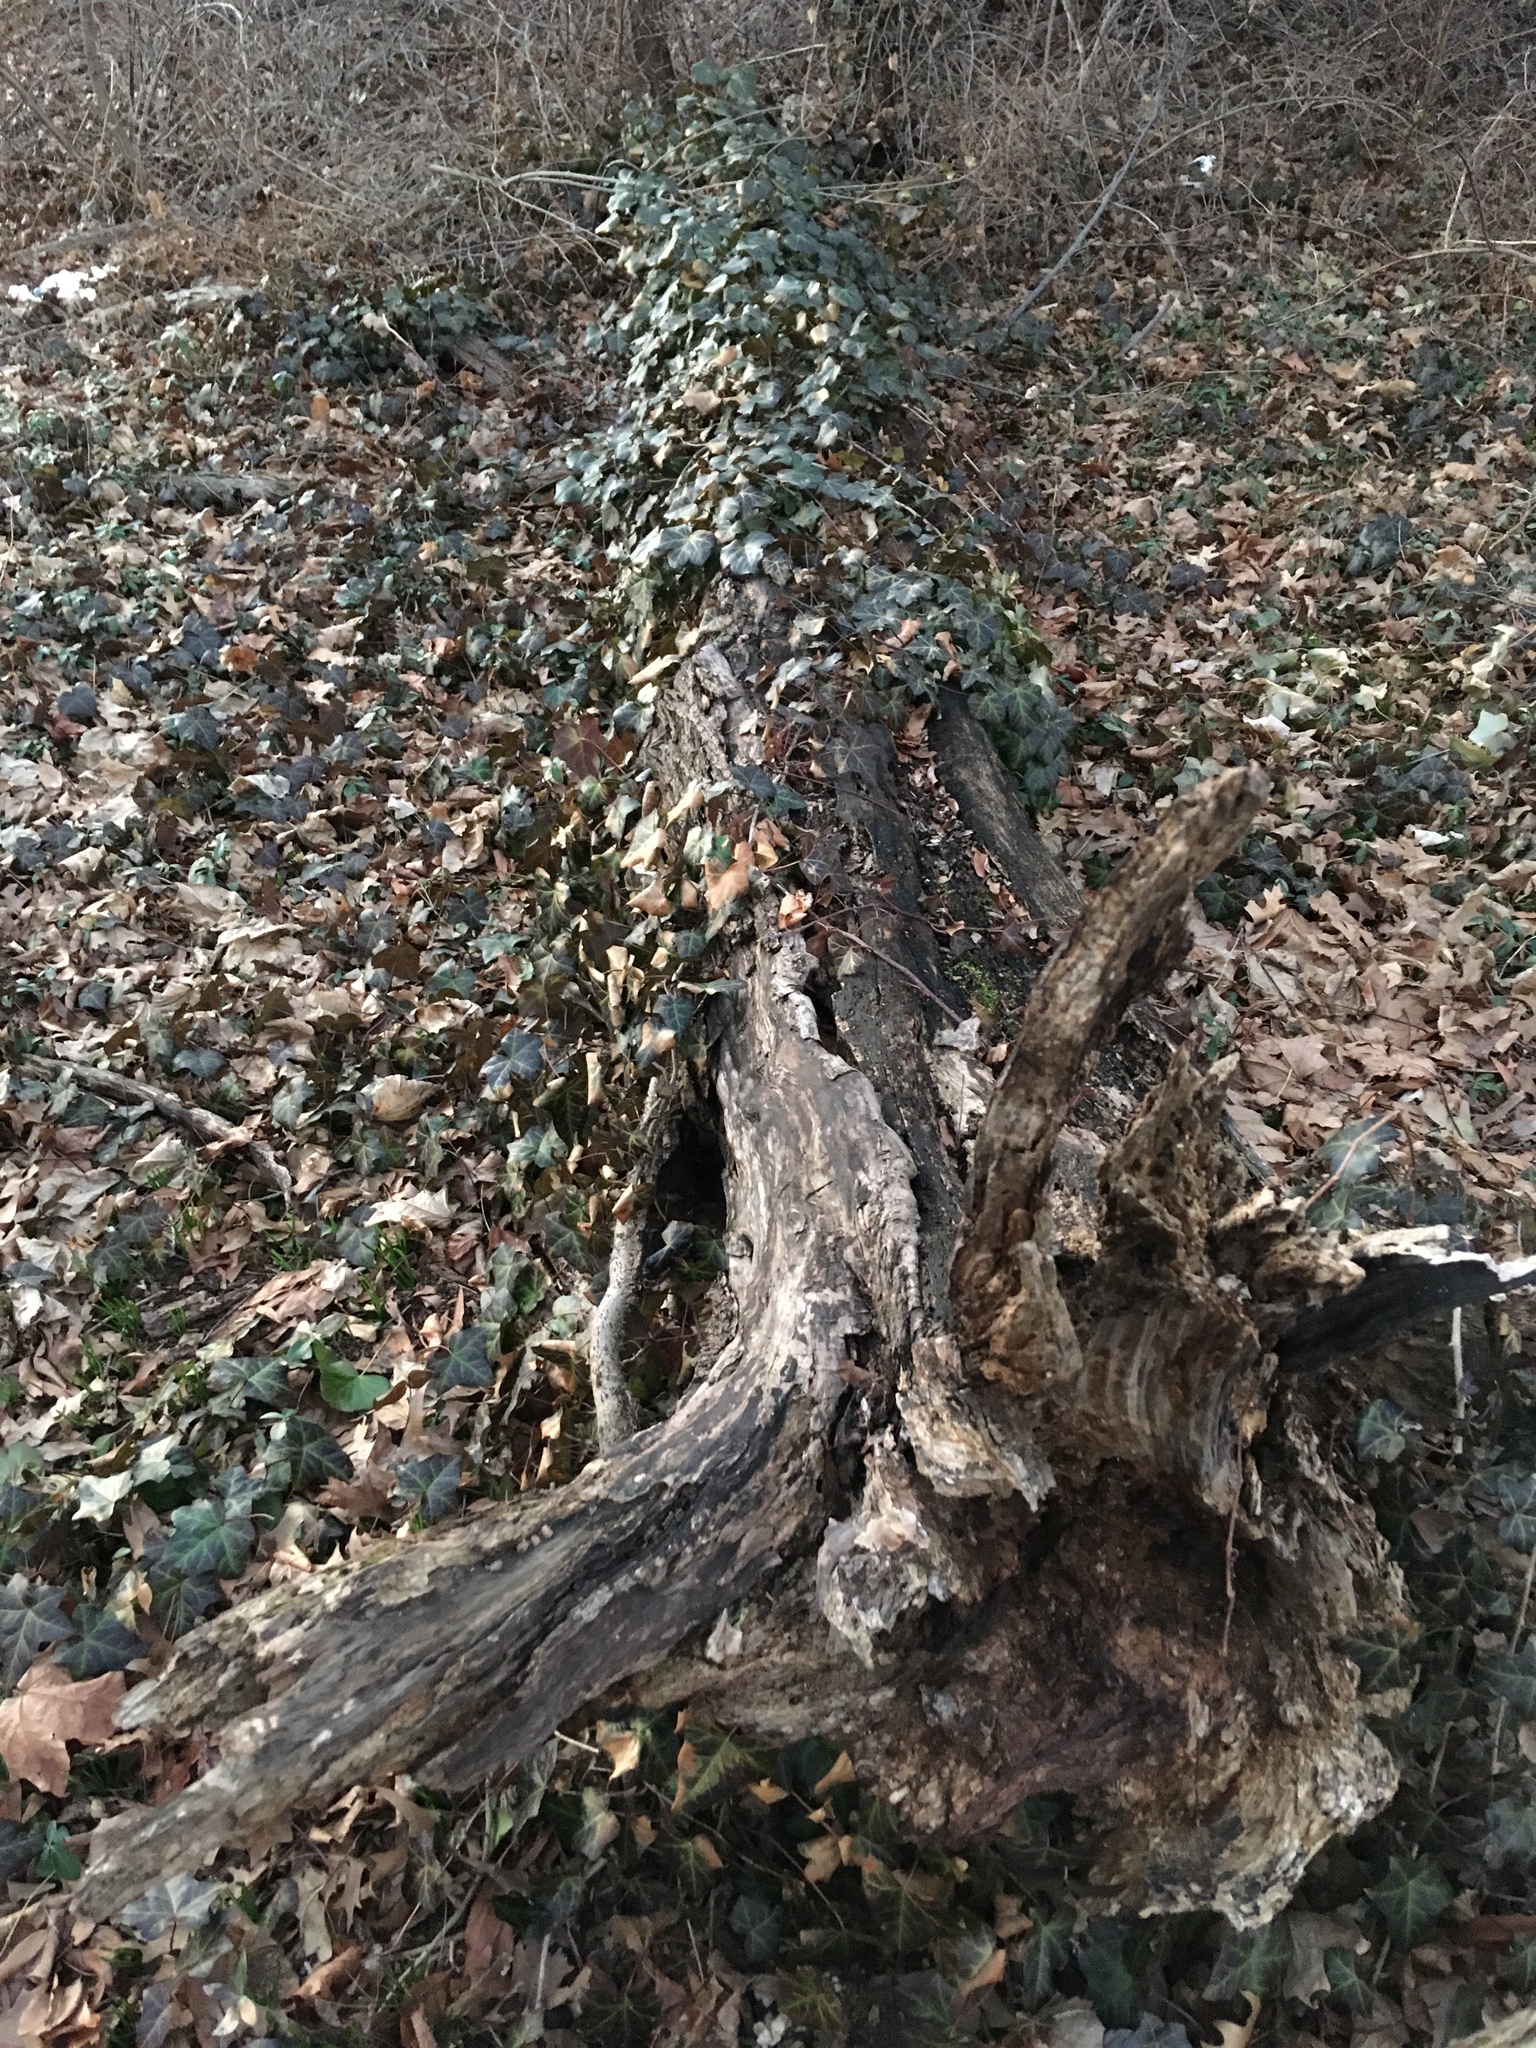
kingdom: Plantae
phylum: Tracheophyta
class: Magnoliopsida
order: Apiales
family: Araliaceae
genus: Hedera
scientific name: Hedera helix
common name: Ivy
